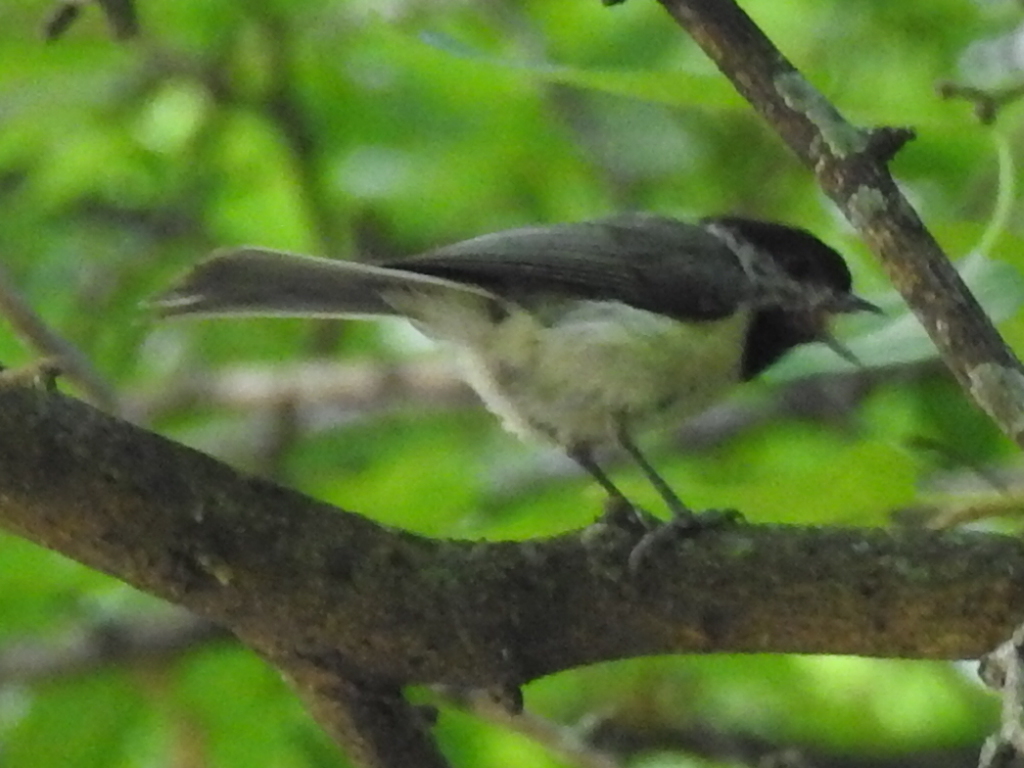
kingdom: Animalia
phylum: Chordata
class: Aves
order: Passeriformes
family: Paridae
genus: Poecile
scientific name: Poecile carolinensis
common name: Carolina chickadee
